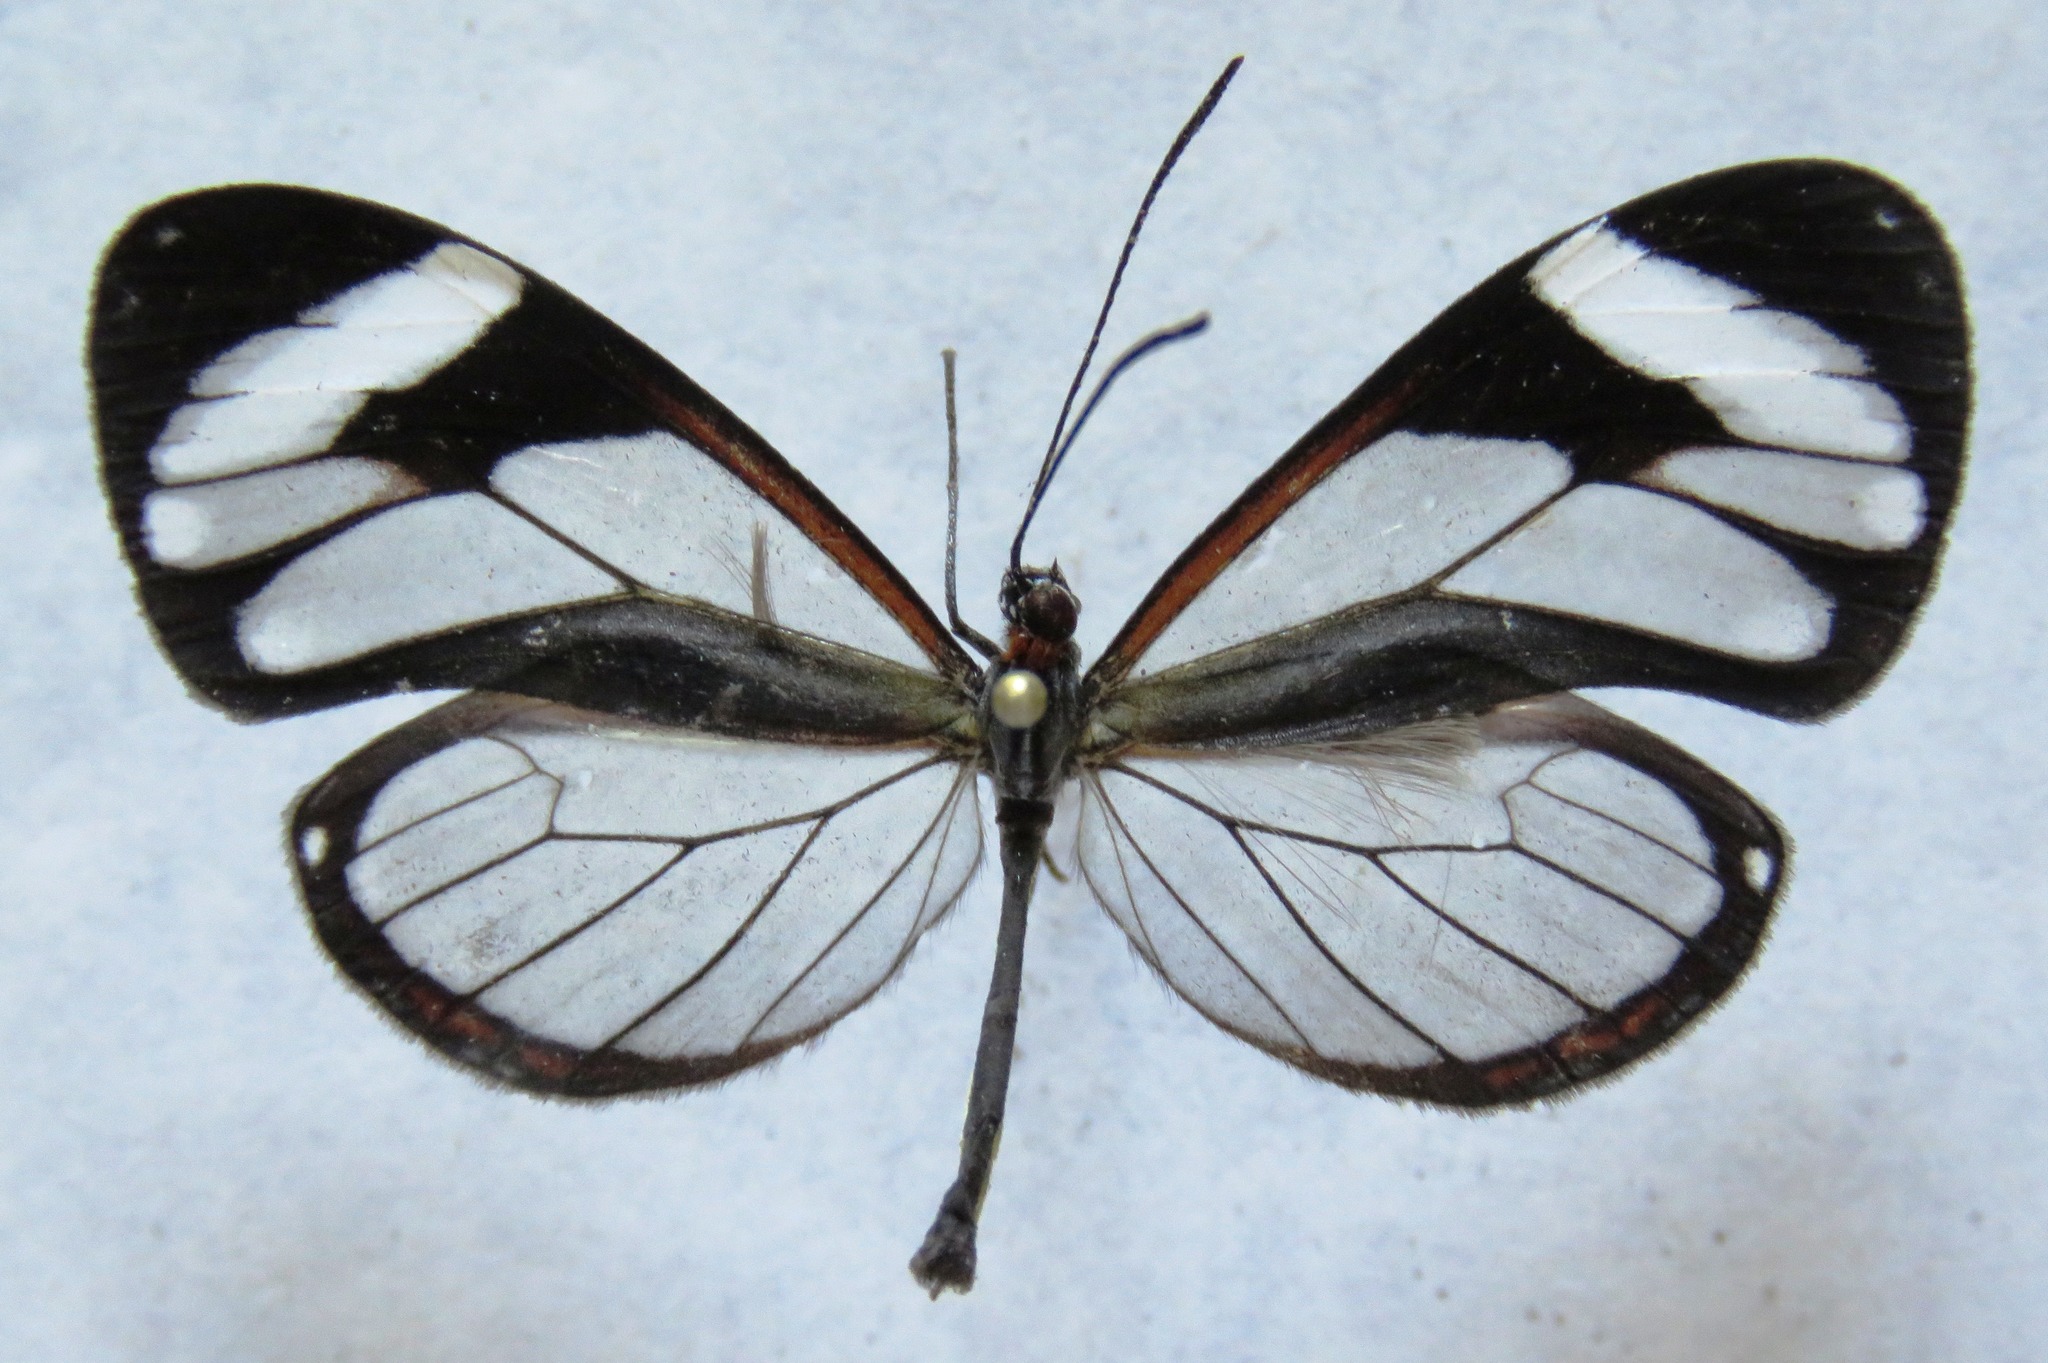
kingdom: Animalia
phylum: Arthropoda
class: Insecta
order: Lepidoptera
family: Nymphalidae
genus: Ithomia
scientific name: Ithomia patilla
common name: Patilla clearwing
